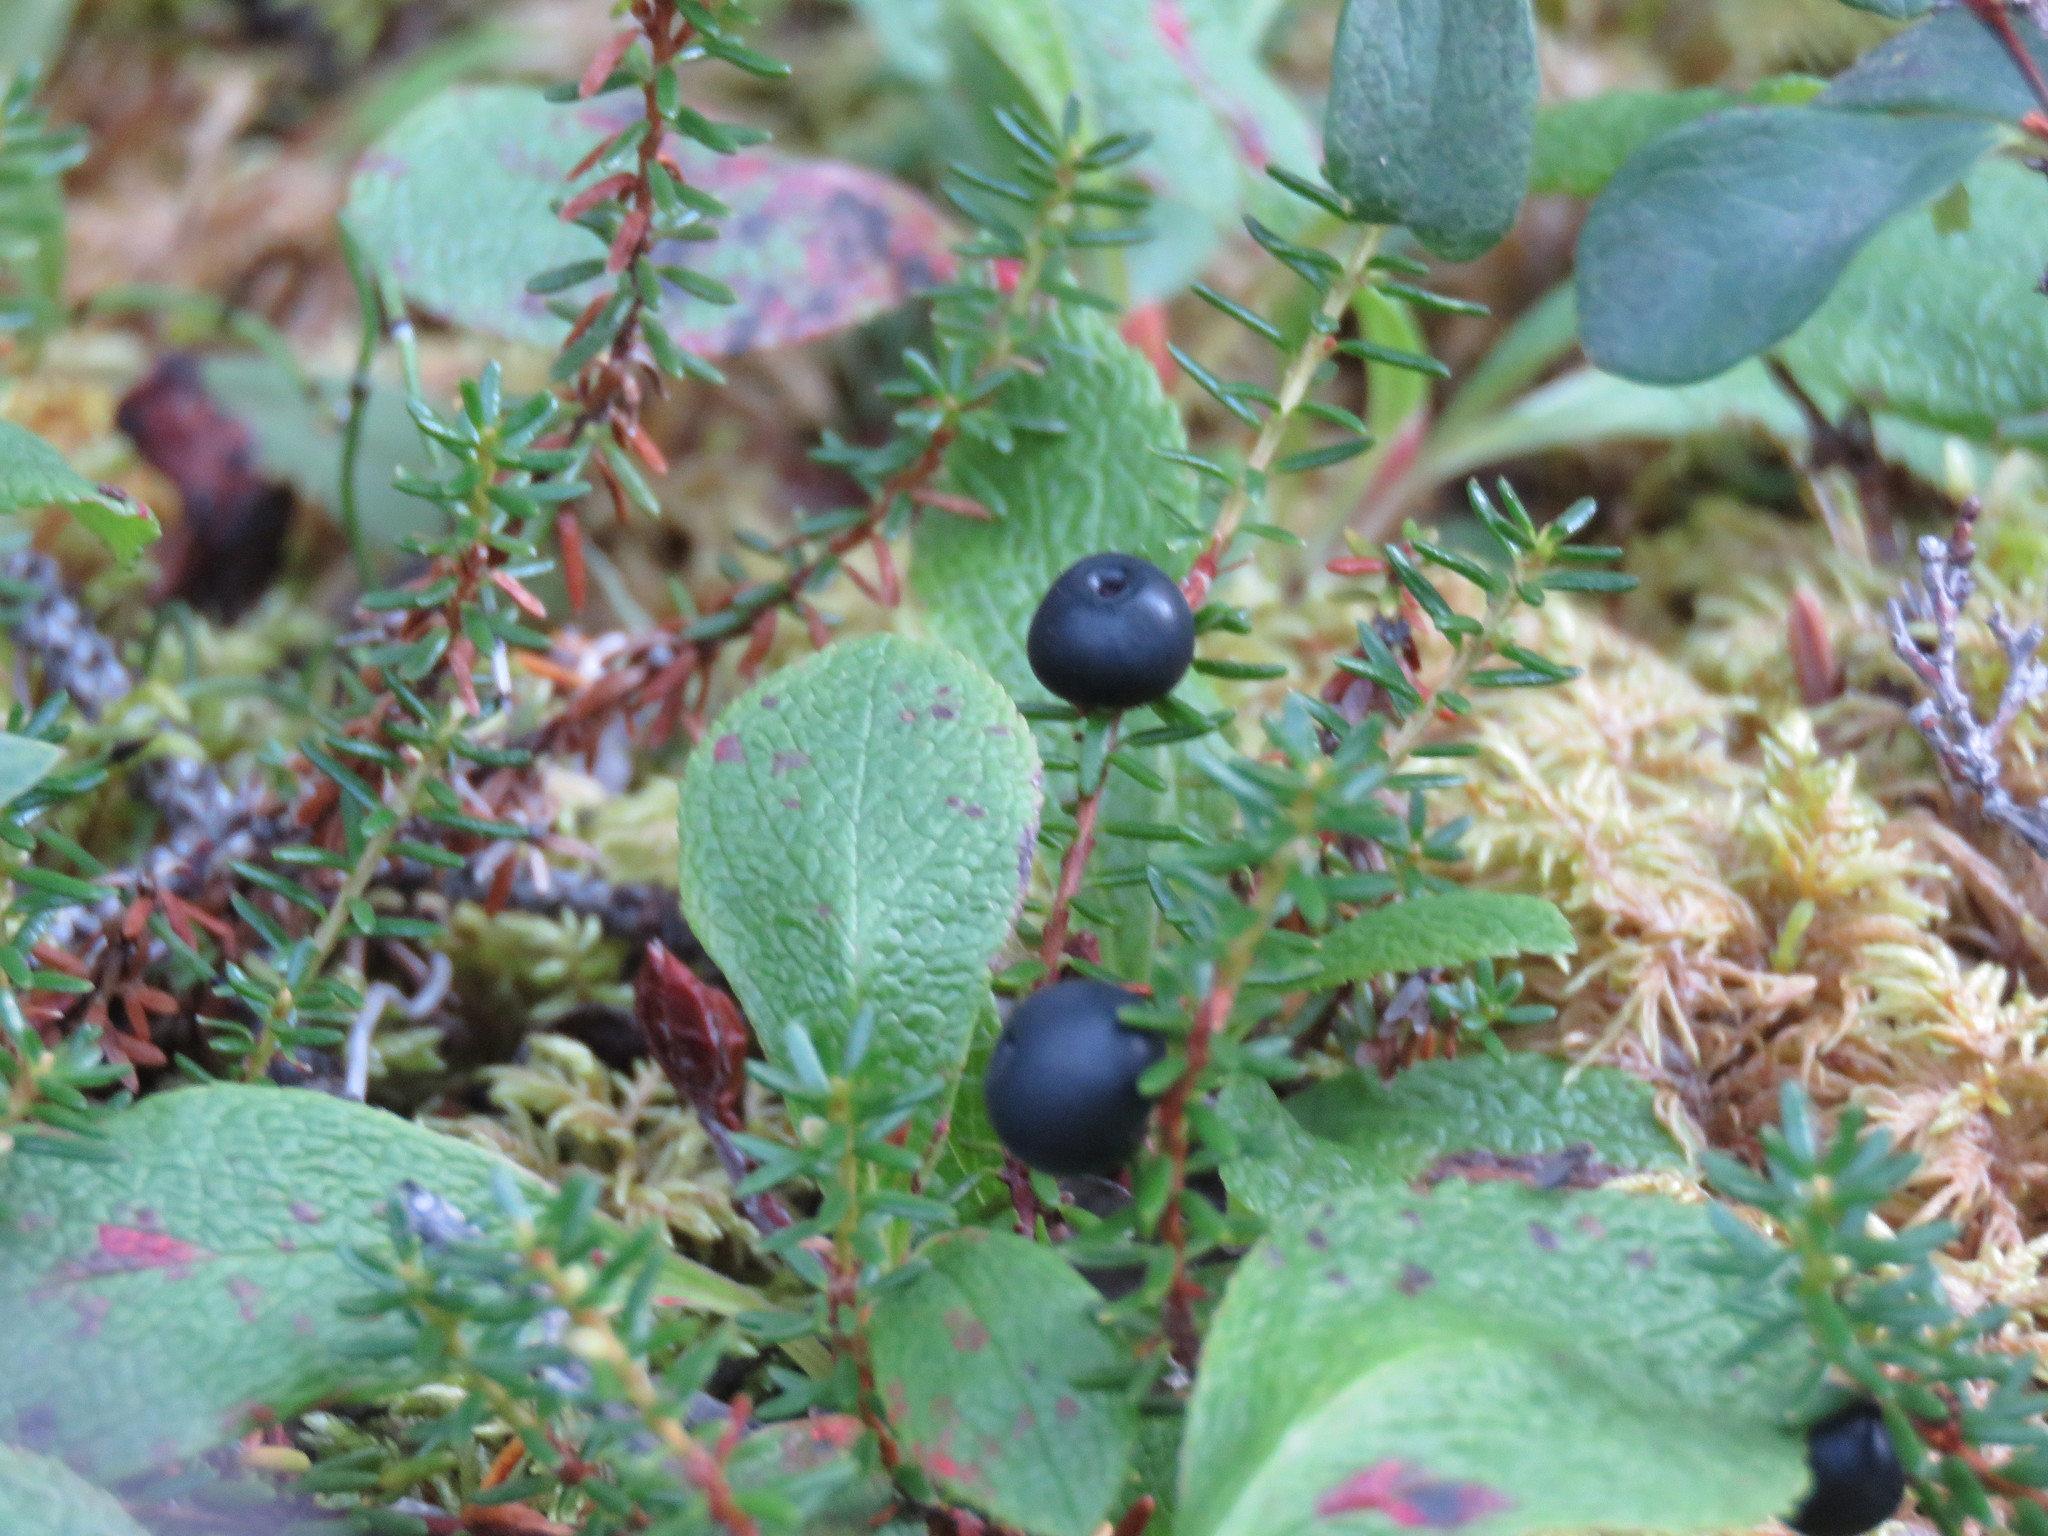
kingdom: Plantae
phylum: Tracheophyta
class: Magnoliopsida
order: Ericales
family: Ericaceae
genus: Empetrum
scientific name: Empetrum nigrum
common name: Black crowberry
